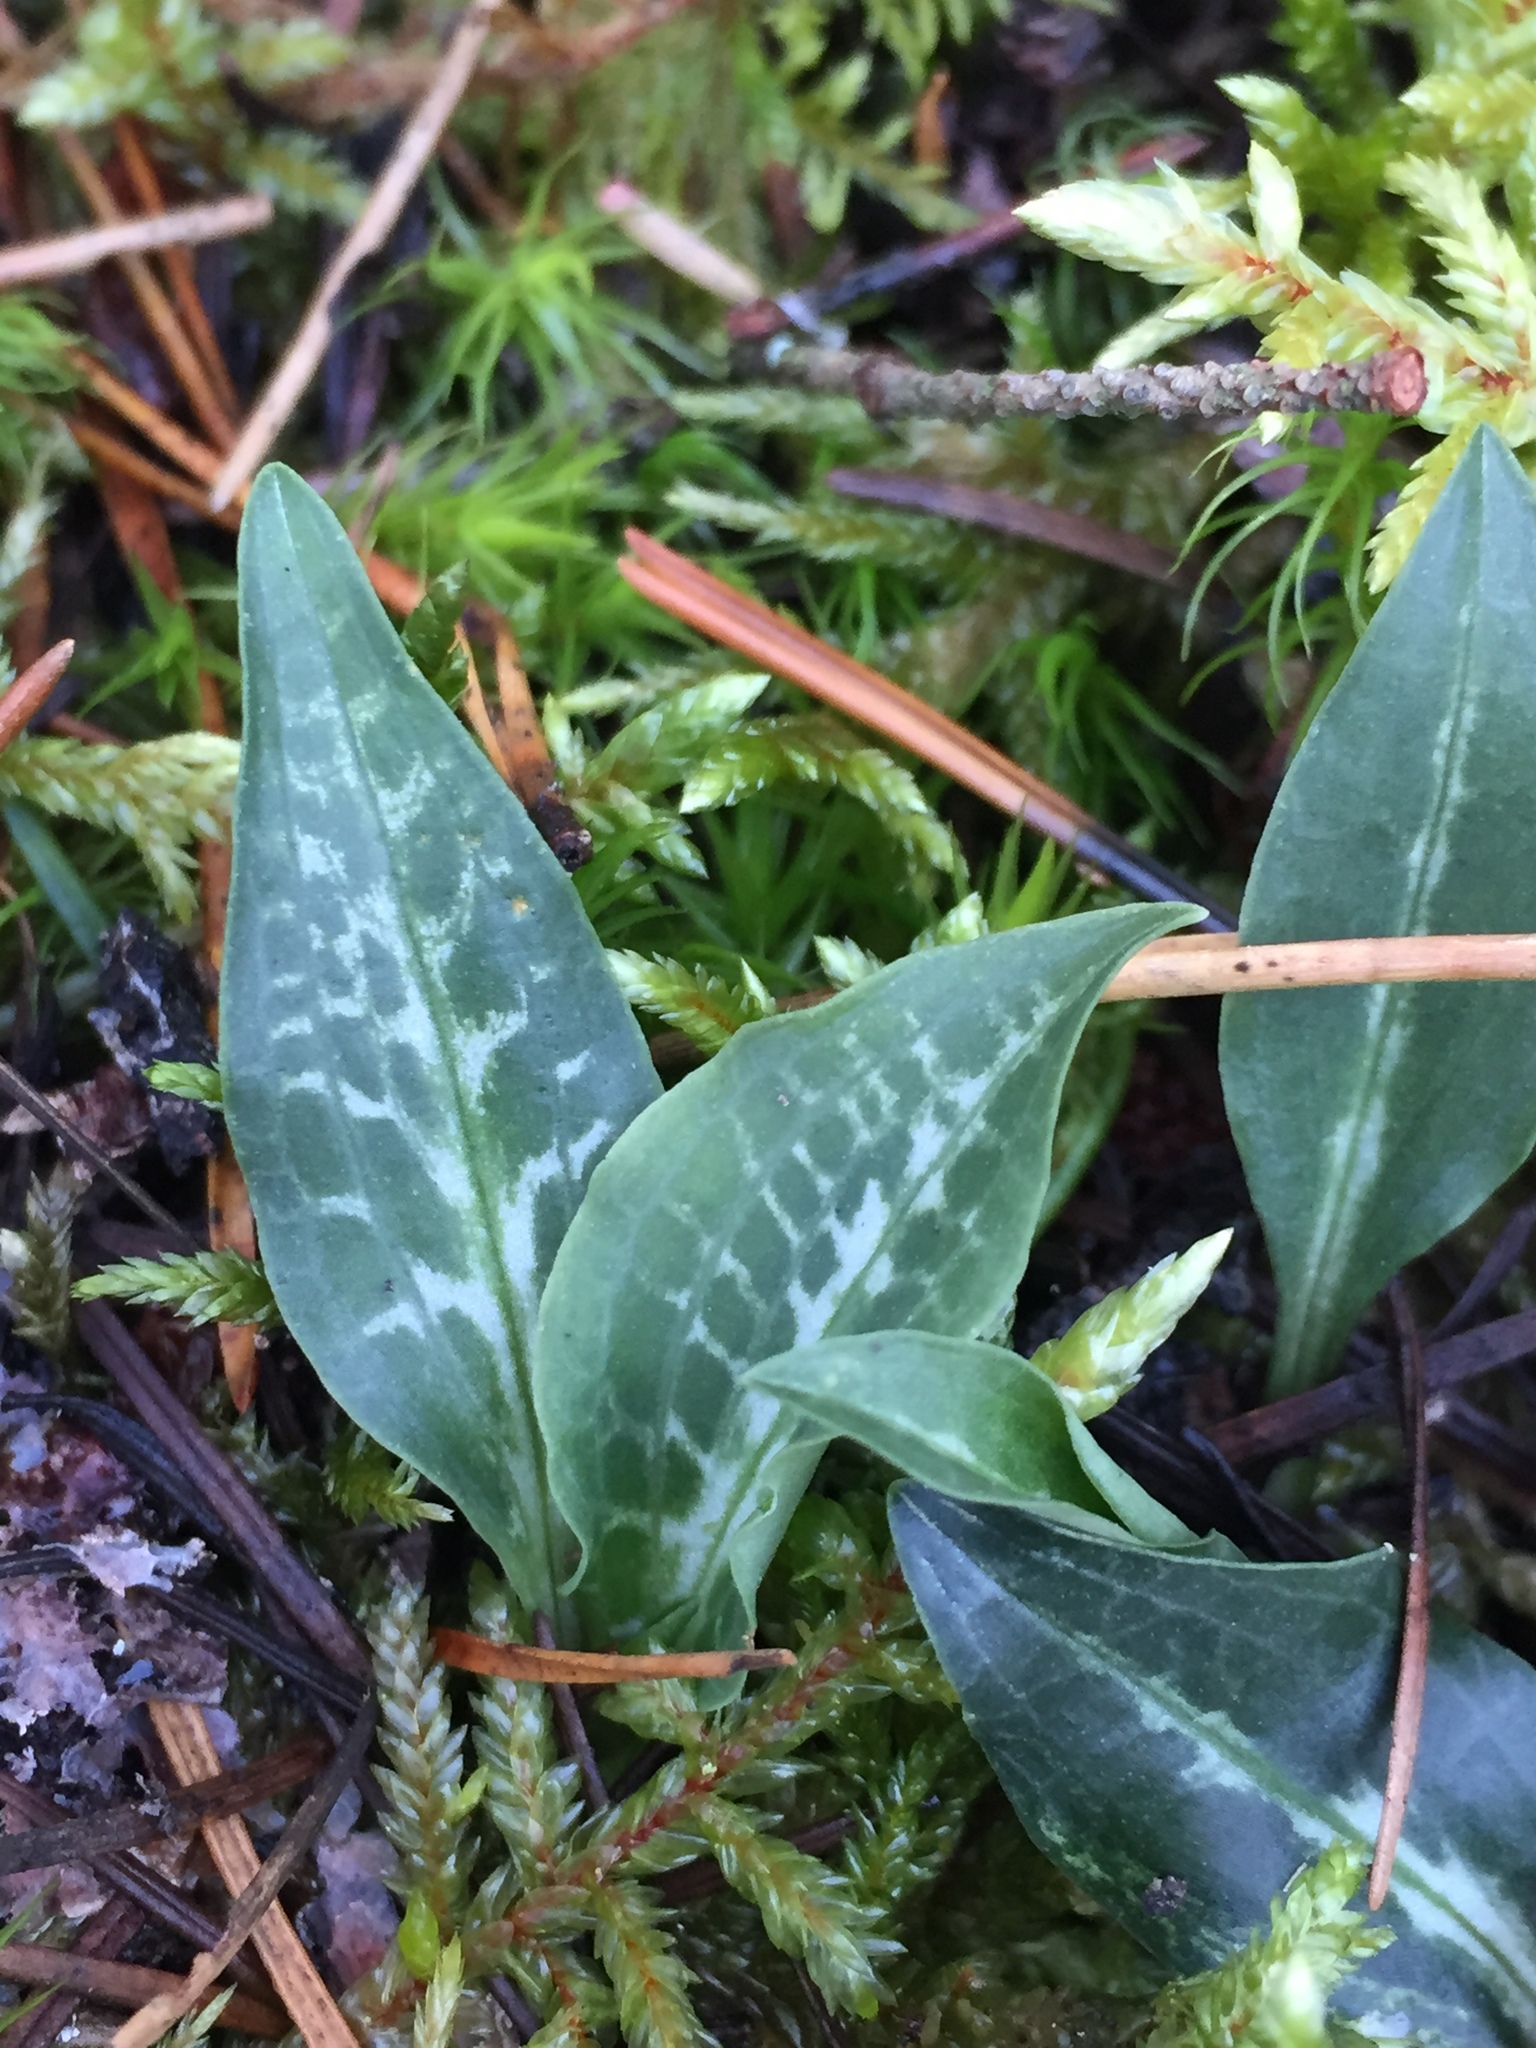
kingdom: Plantae
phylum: Tracheophyta
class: Liliopsida
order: Asparagales
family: Orchidaceae
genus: Goodyera
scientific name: Goodyera oblongifolia
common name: Giant rattlesnake-plantain
